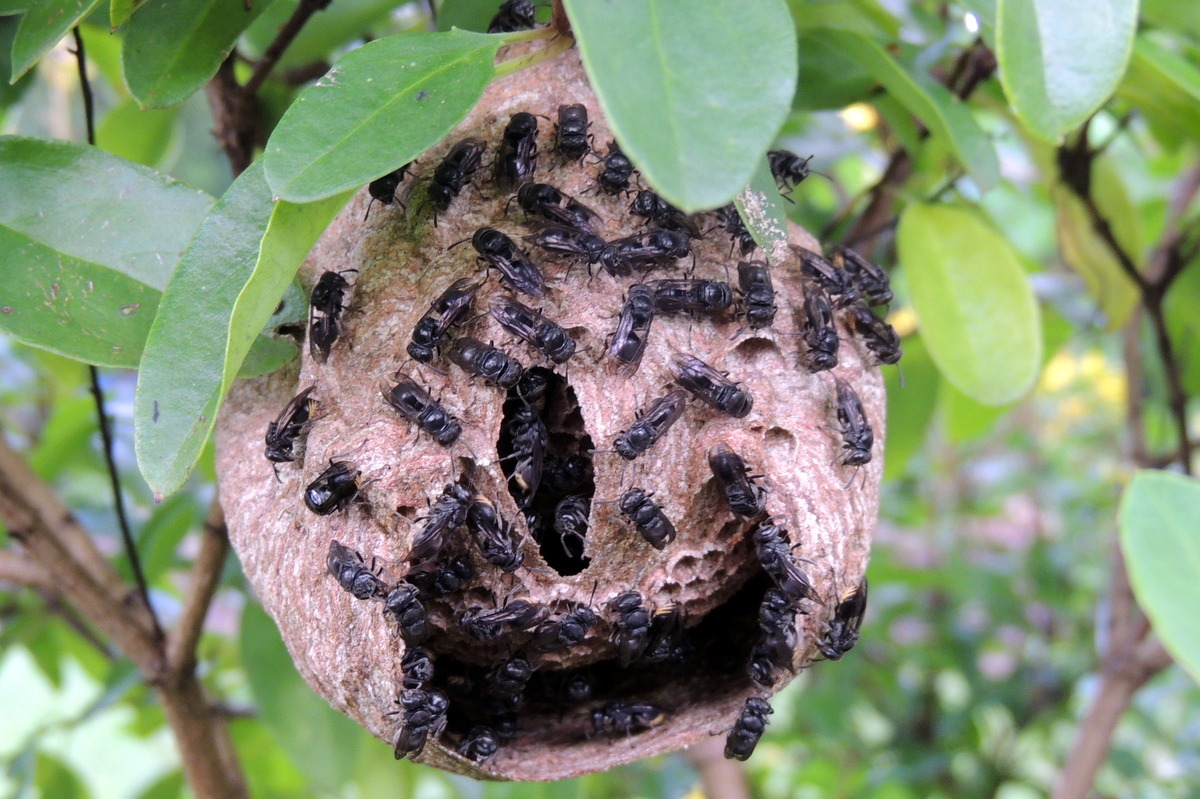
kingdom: Animalia
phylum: Arthropoda
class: Insecta
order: Hymenoptera
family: Vespidae
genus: Brachygastra
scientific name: Brachygastra augusti
